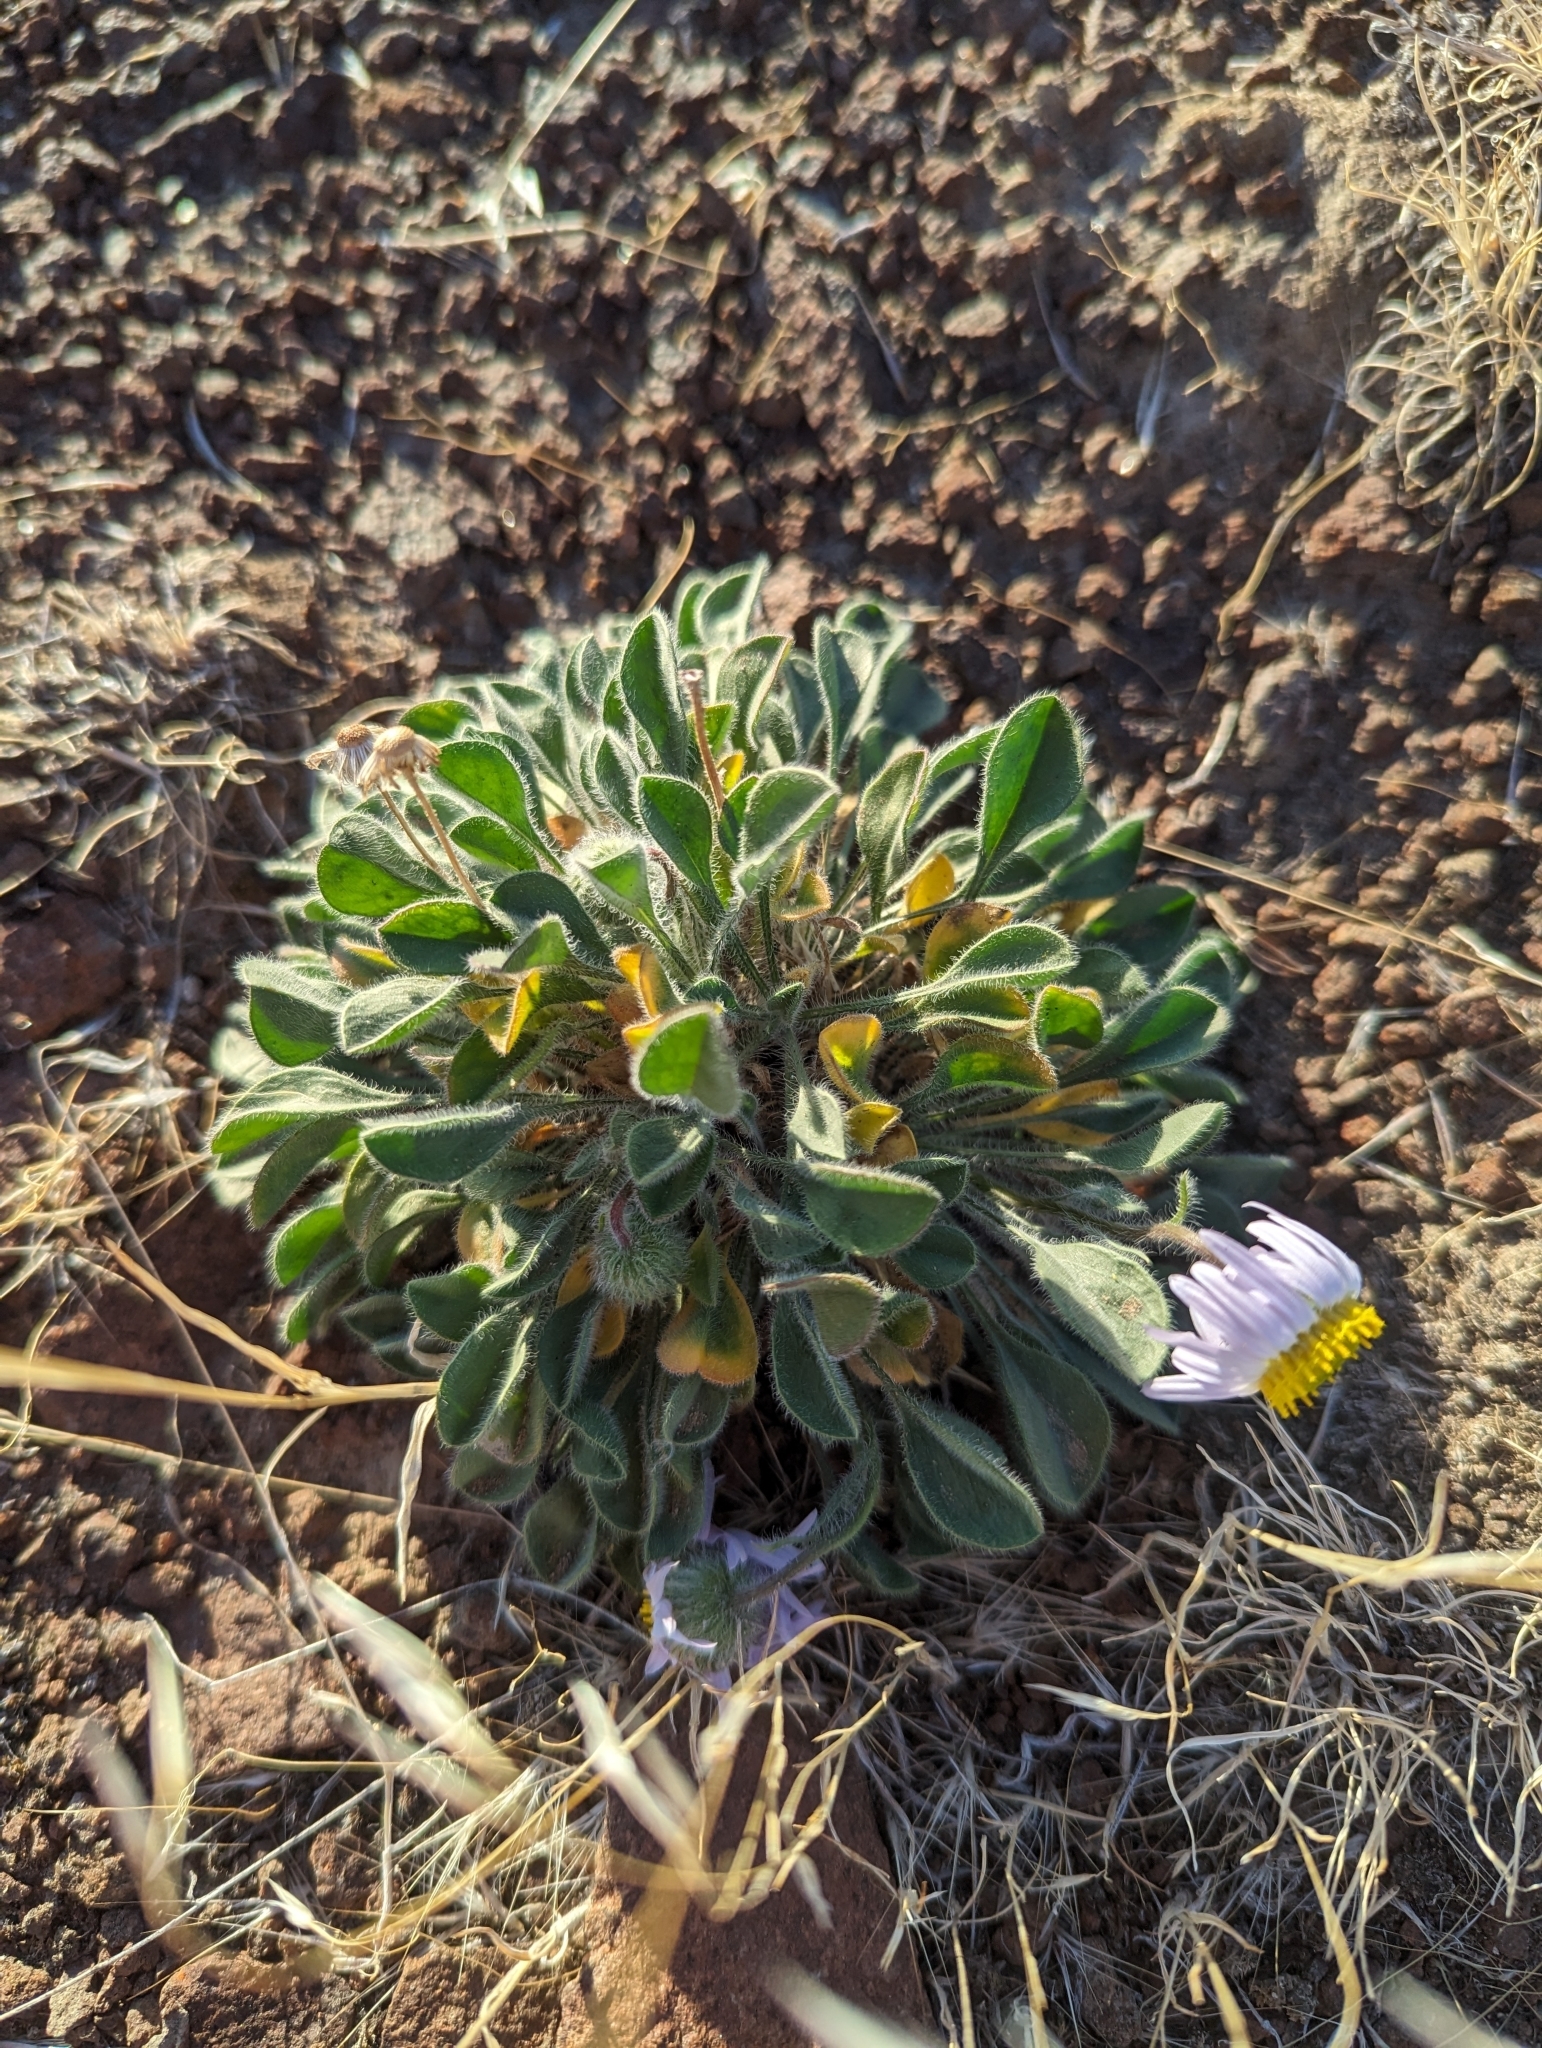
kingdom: Plantae
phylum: Tracheophyta
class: Magnoliopsida
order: Asterales
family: Asteraceae
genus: Erigeron
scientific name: Erigeron poliospermus
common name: Cushion fleabane
